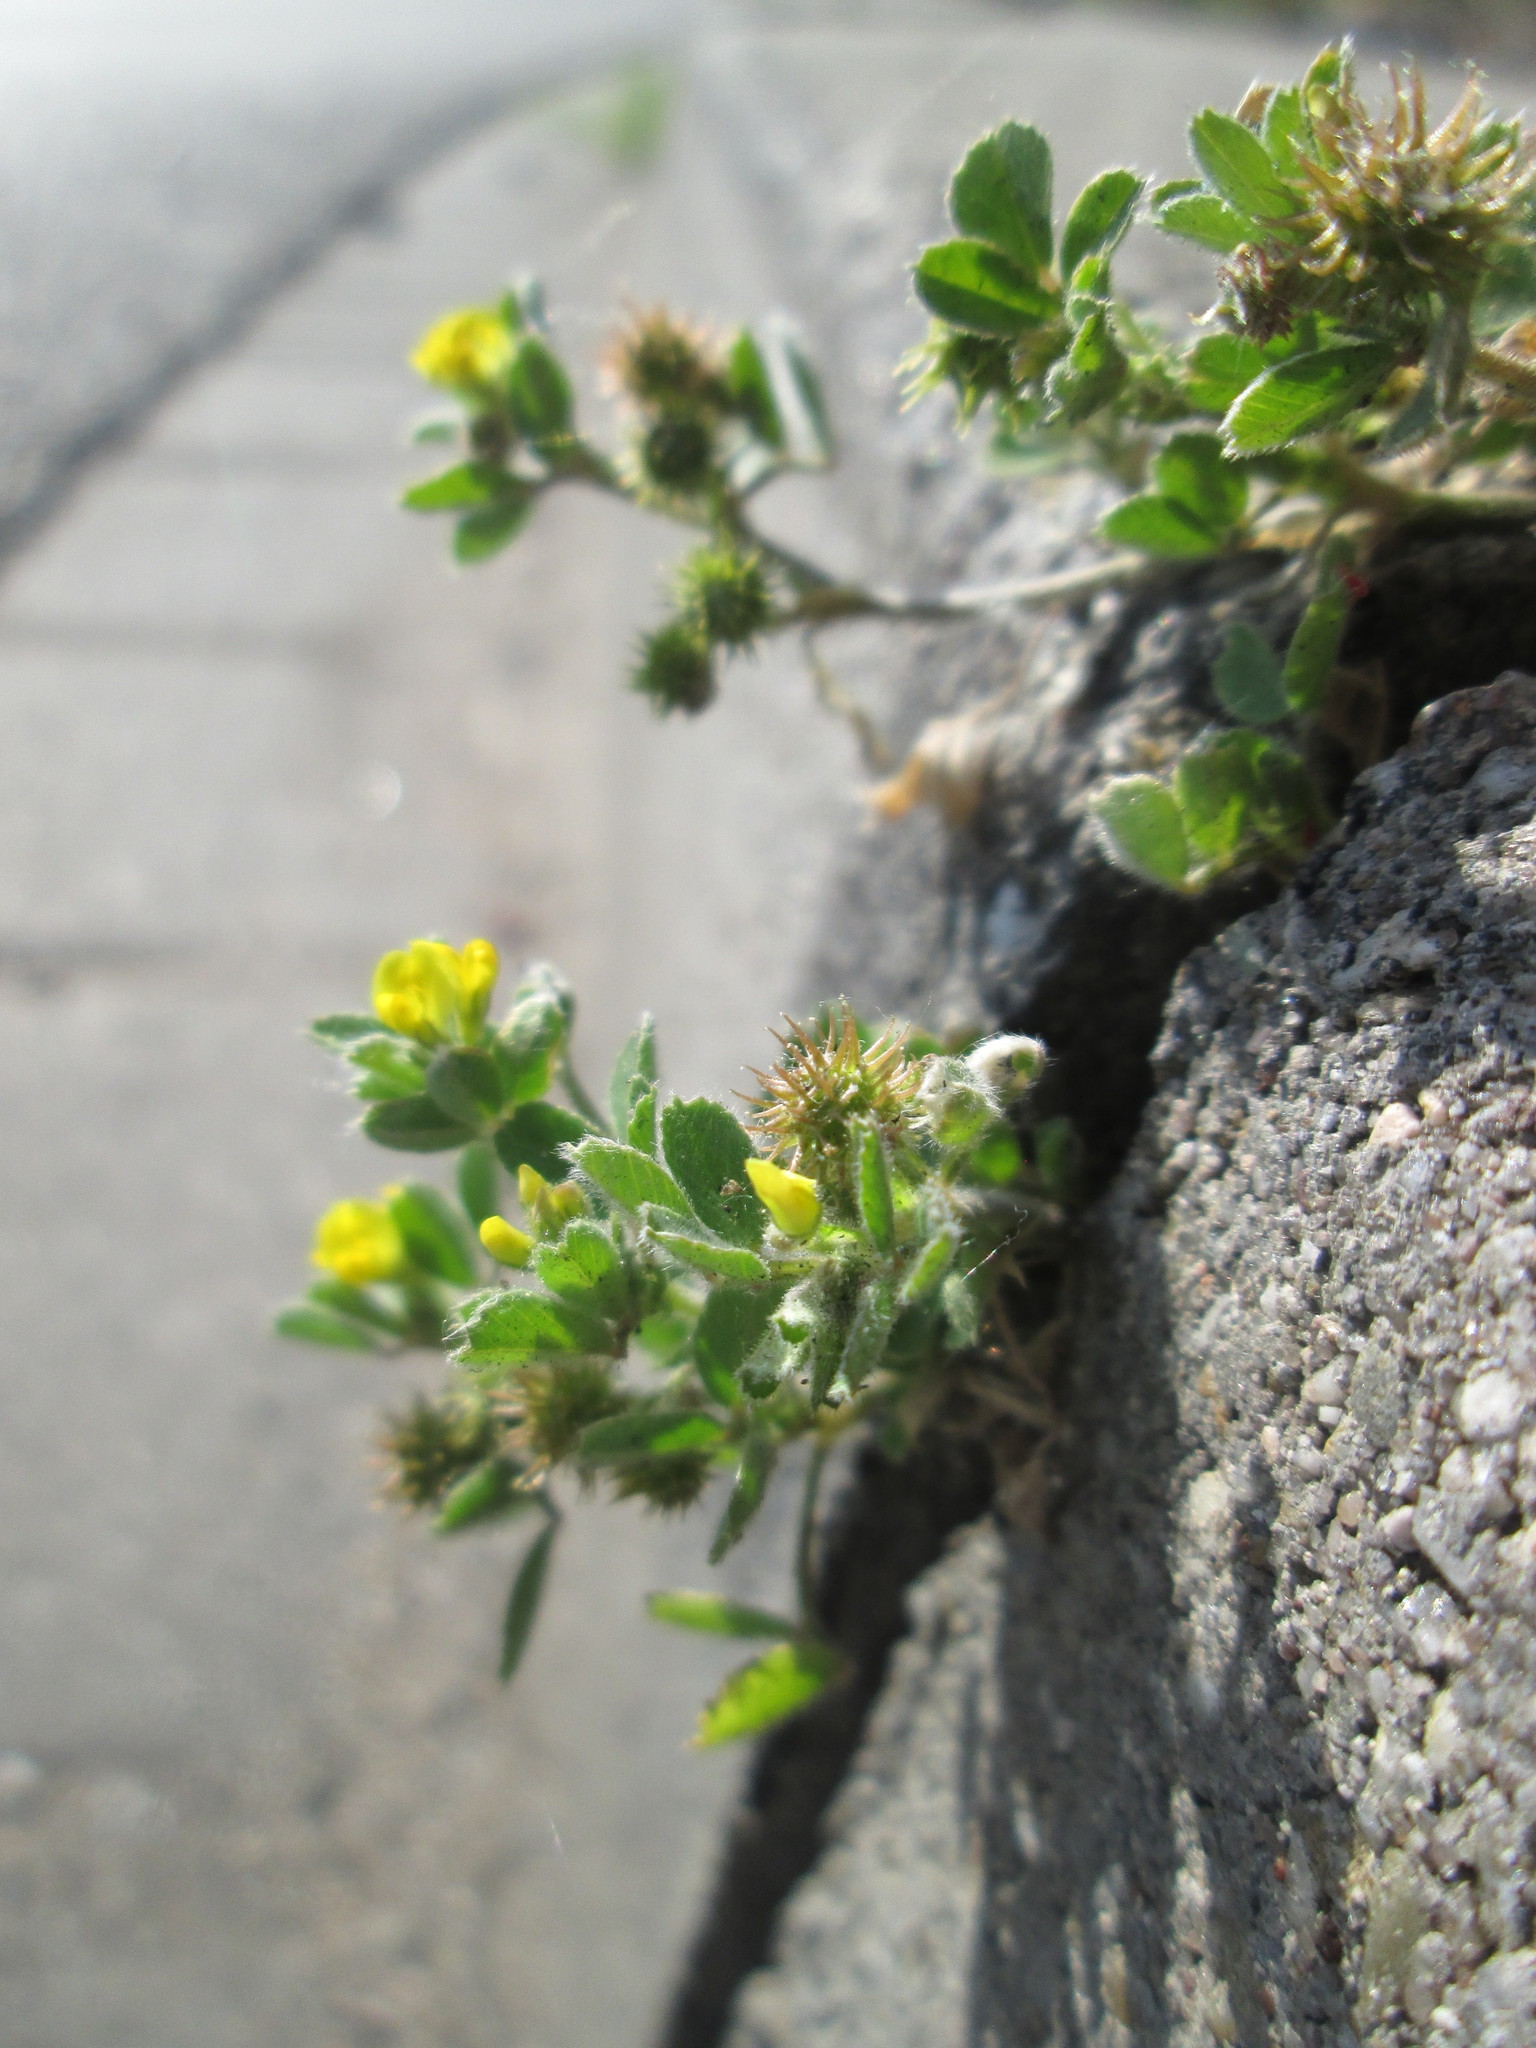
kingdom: Plantae
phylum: Tracheophyta
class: Magnoliopsida
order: Fabales
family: Fabaceae
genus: Medicago
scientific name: Medicago minima
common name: Little bur-clover
